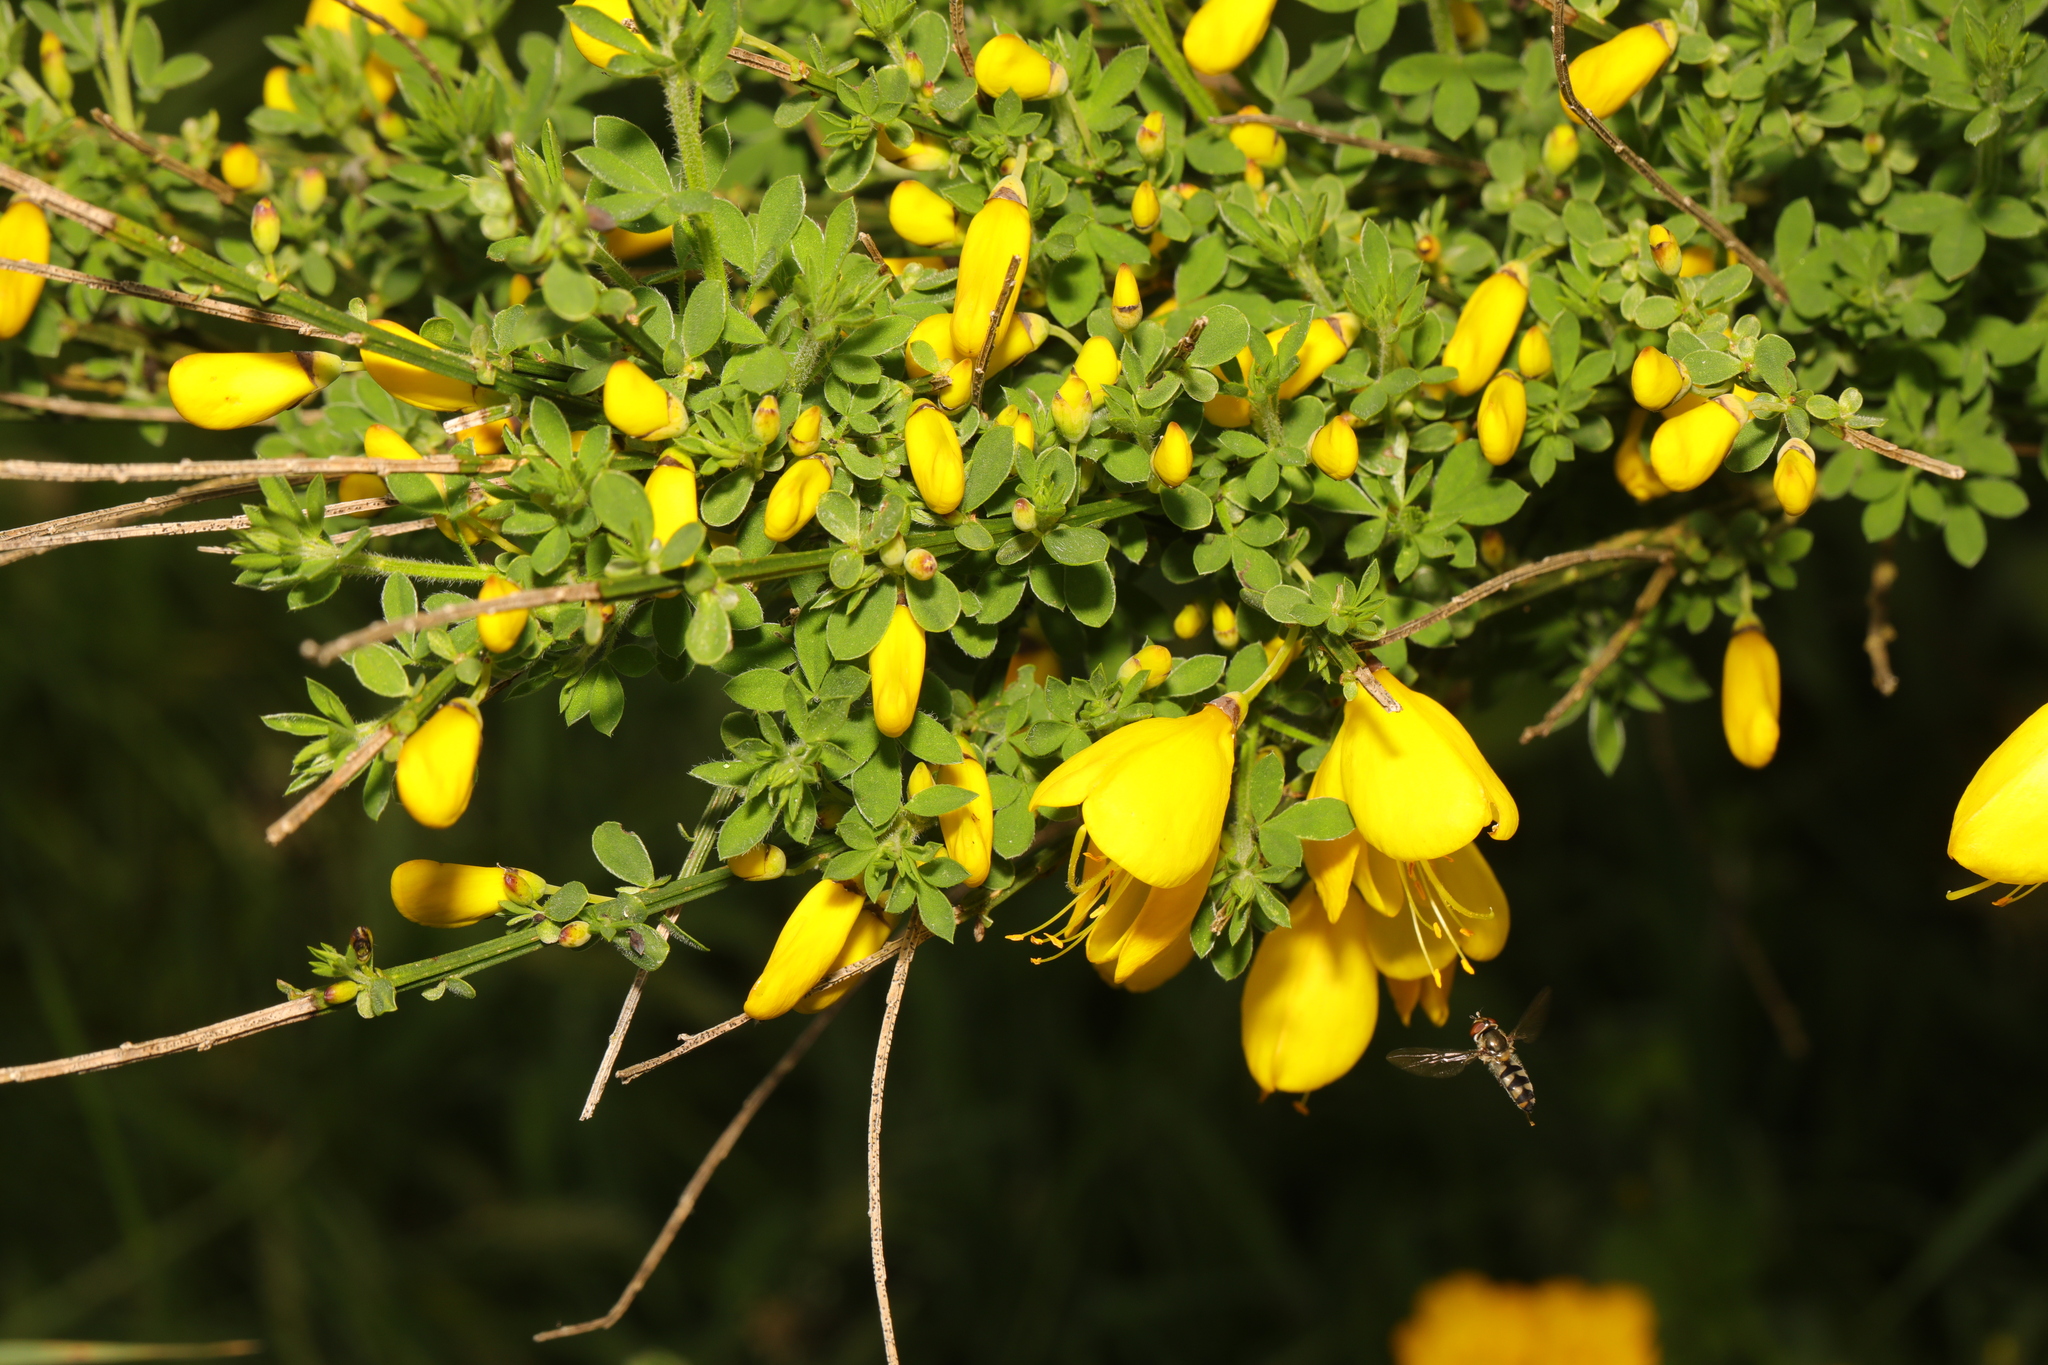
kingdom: Plantae
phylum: Tracheophyta
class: Magnoliopsida
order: Fabales
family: Fabaceae
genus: Cytisus
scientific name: Cytisus scoparius
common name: Scotch broom
